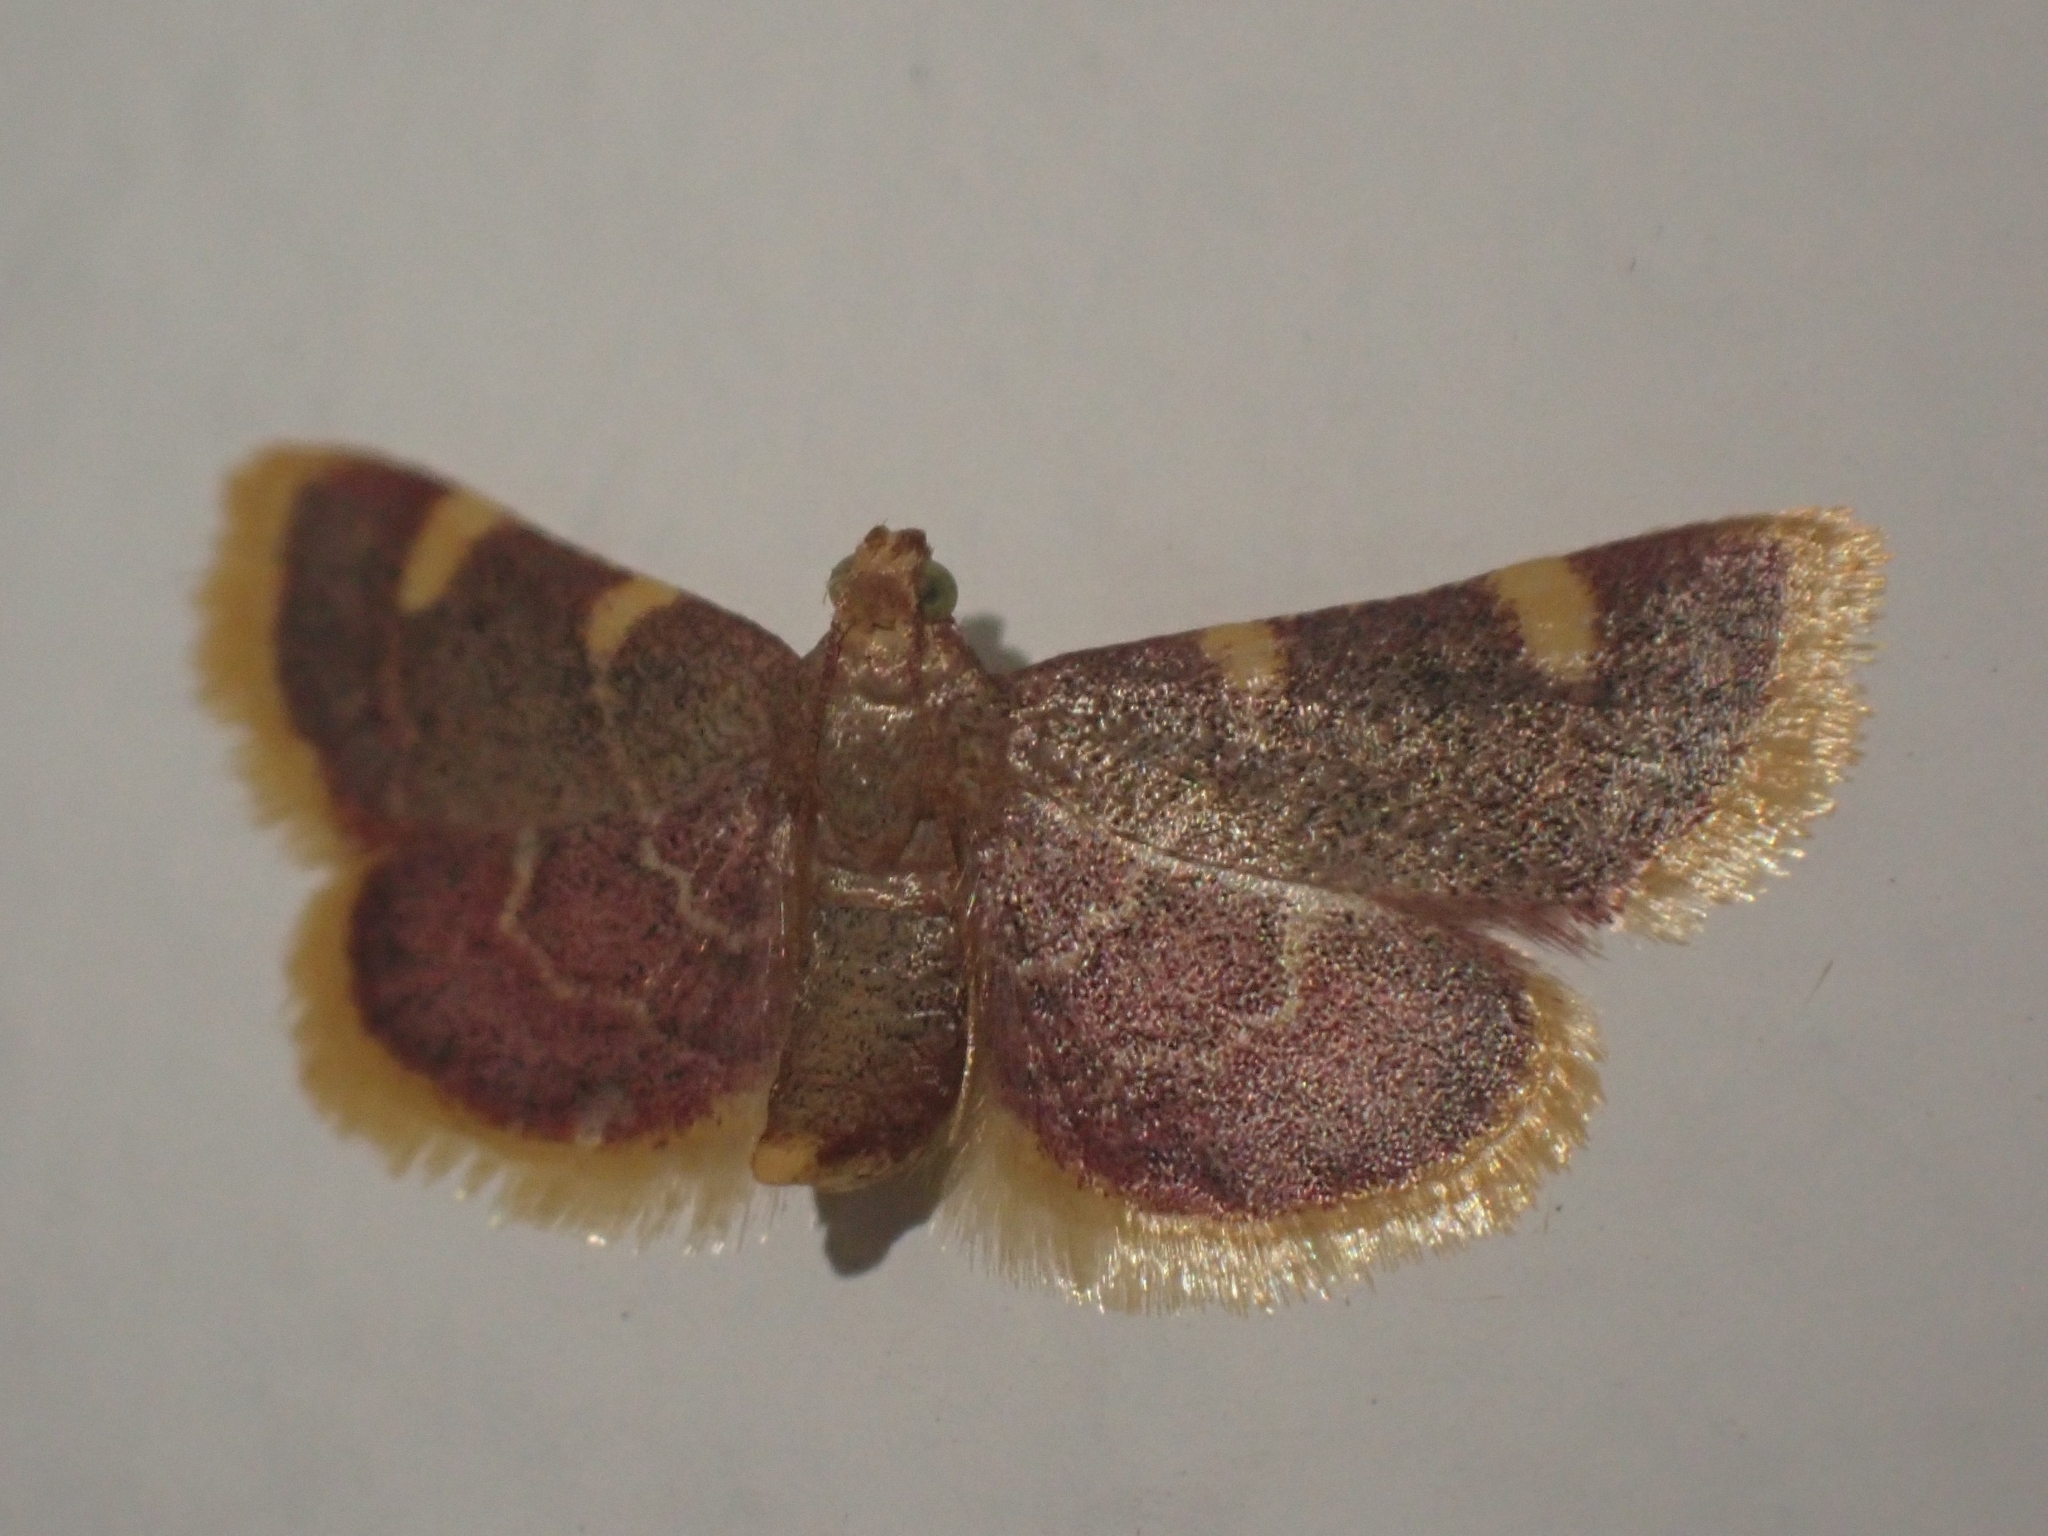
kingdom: Animalia
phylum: Arthropoda
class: Insecta
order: Lepidoptera
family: Pyralidae
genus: Hypsopygia
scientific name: Hypsopygia costalis
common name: Gold triangle
